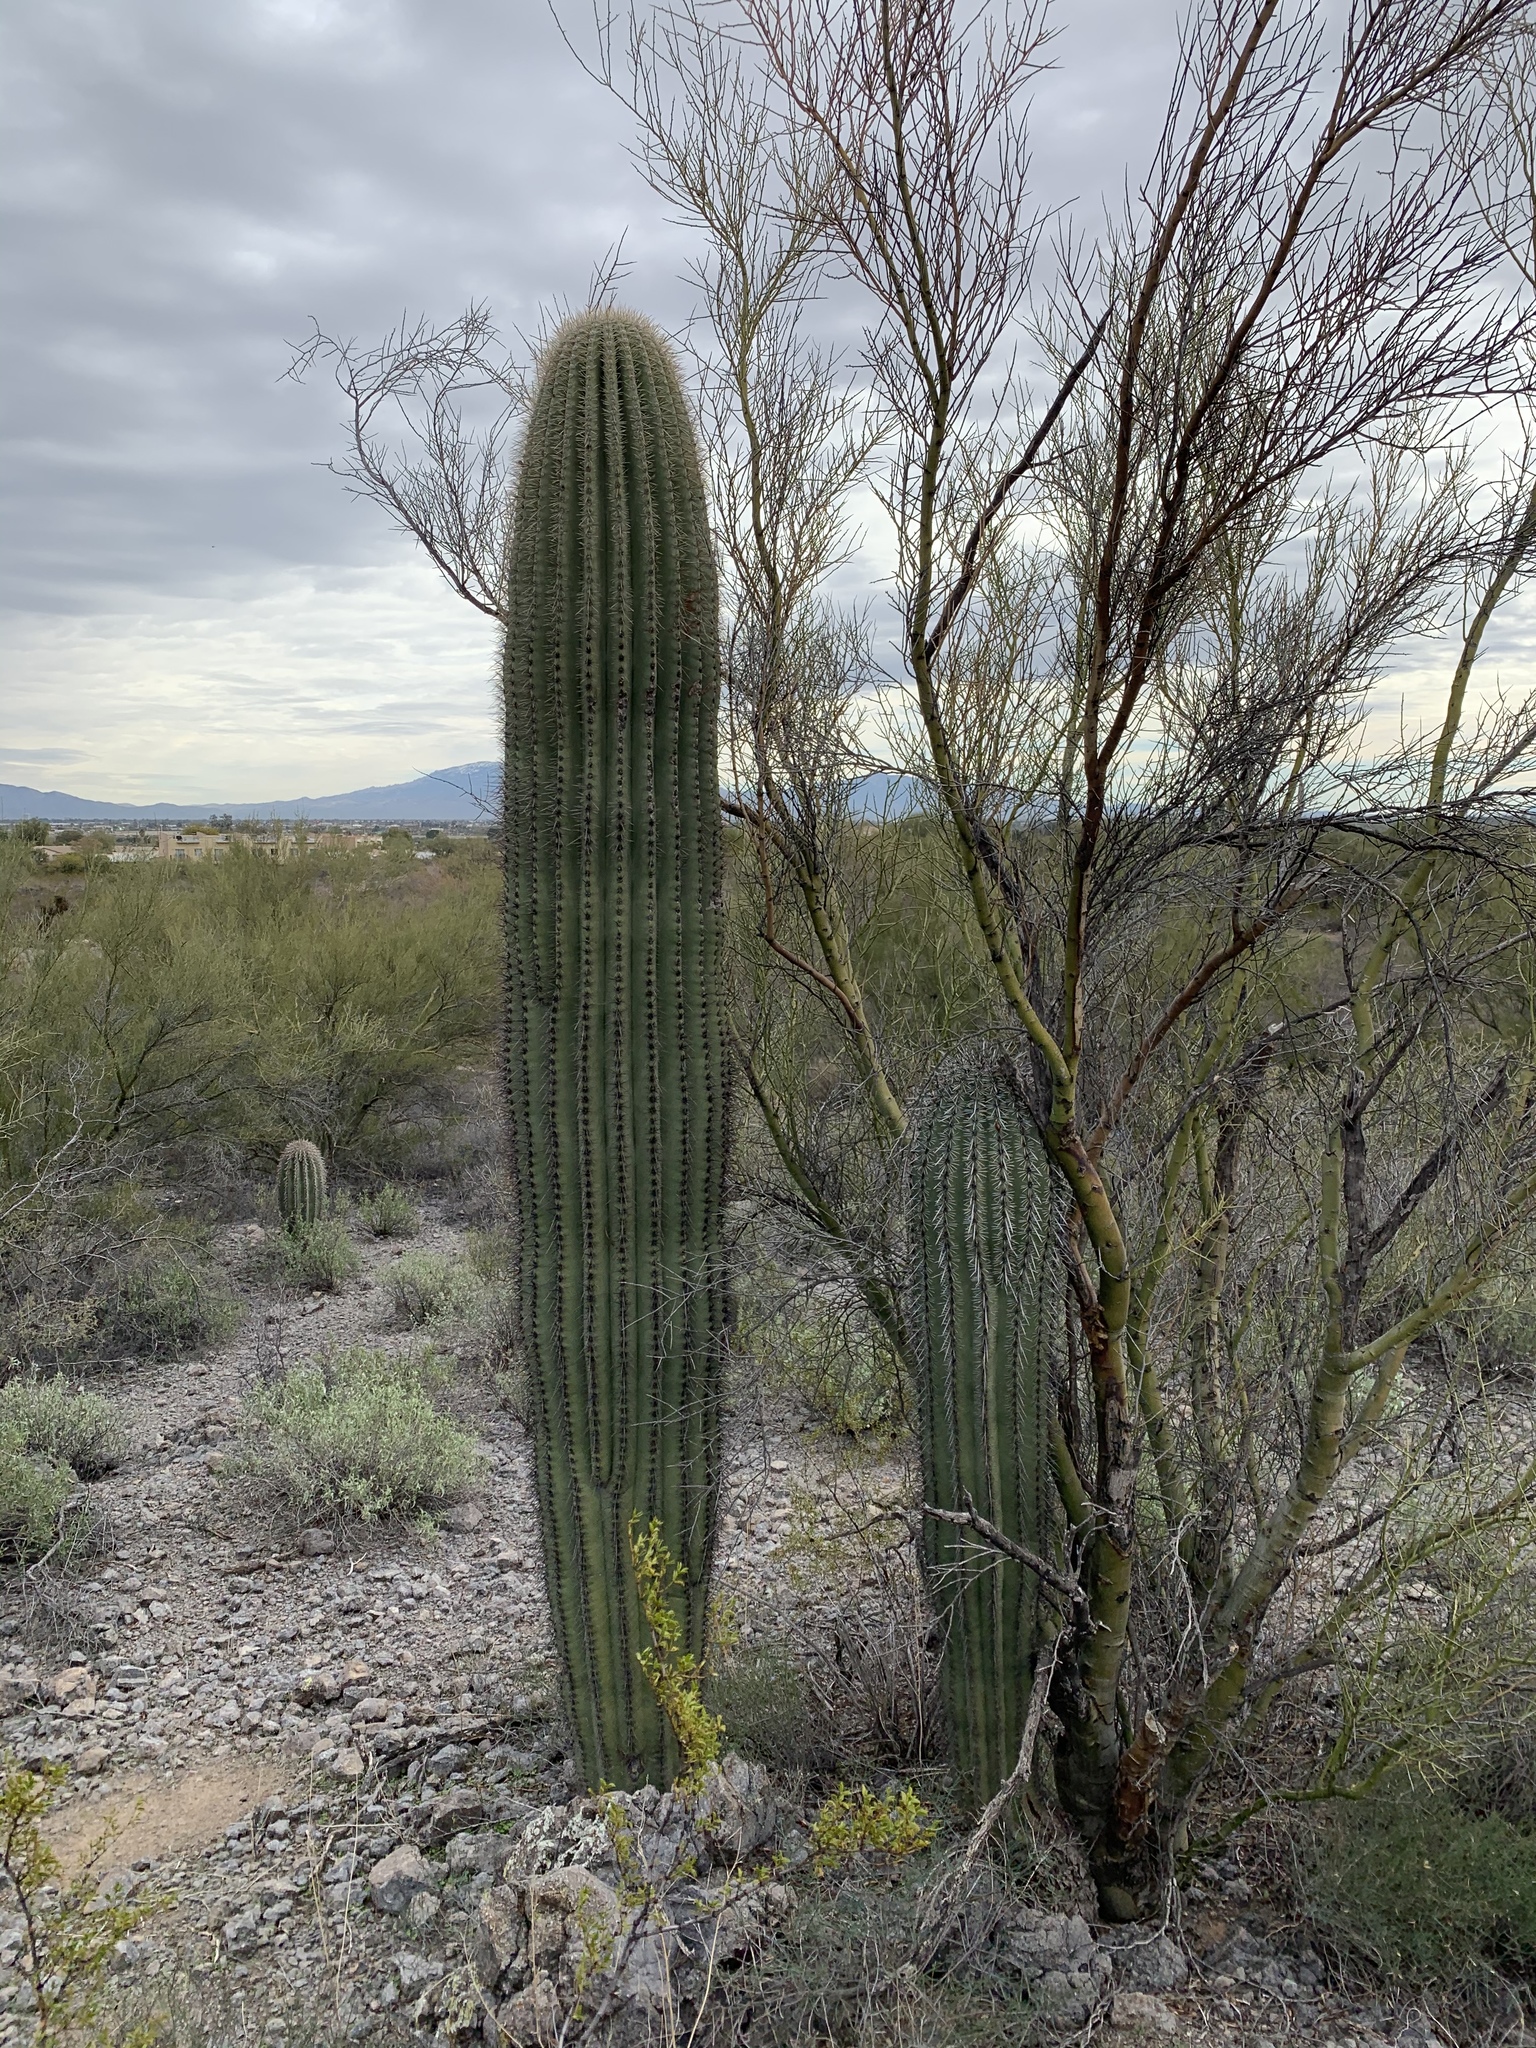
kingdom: Plantae
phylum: Tracheophyta
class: Magnoliopsida
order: Caryophyllales
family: Cactaceae
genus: Carnegiea
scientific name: Carnegiea gigantea
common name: Saguaro
